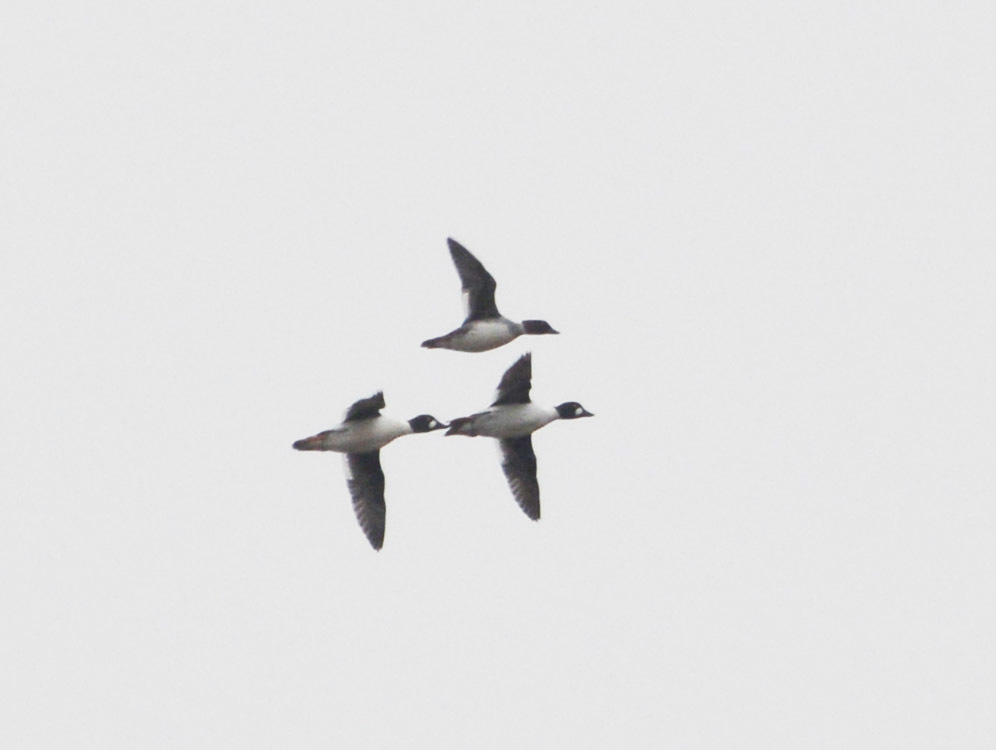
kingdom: Animalia
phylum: Chordata
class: Aves
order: Anseriformes
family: Anatidae
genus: Bucephala
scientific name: Bucephala clangula
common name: Common goldeneye
